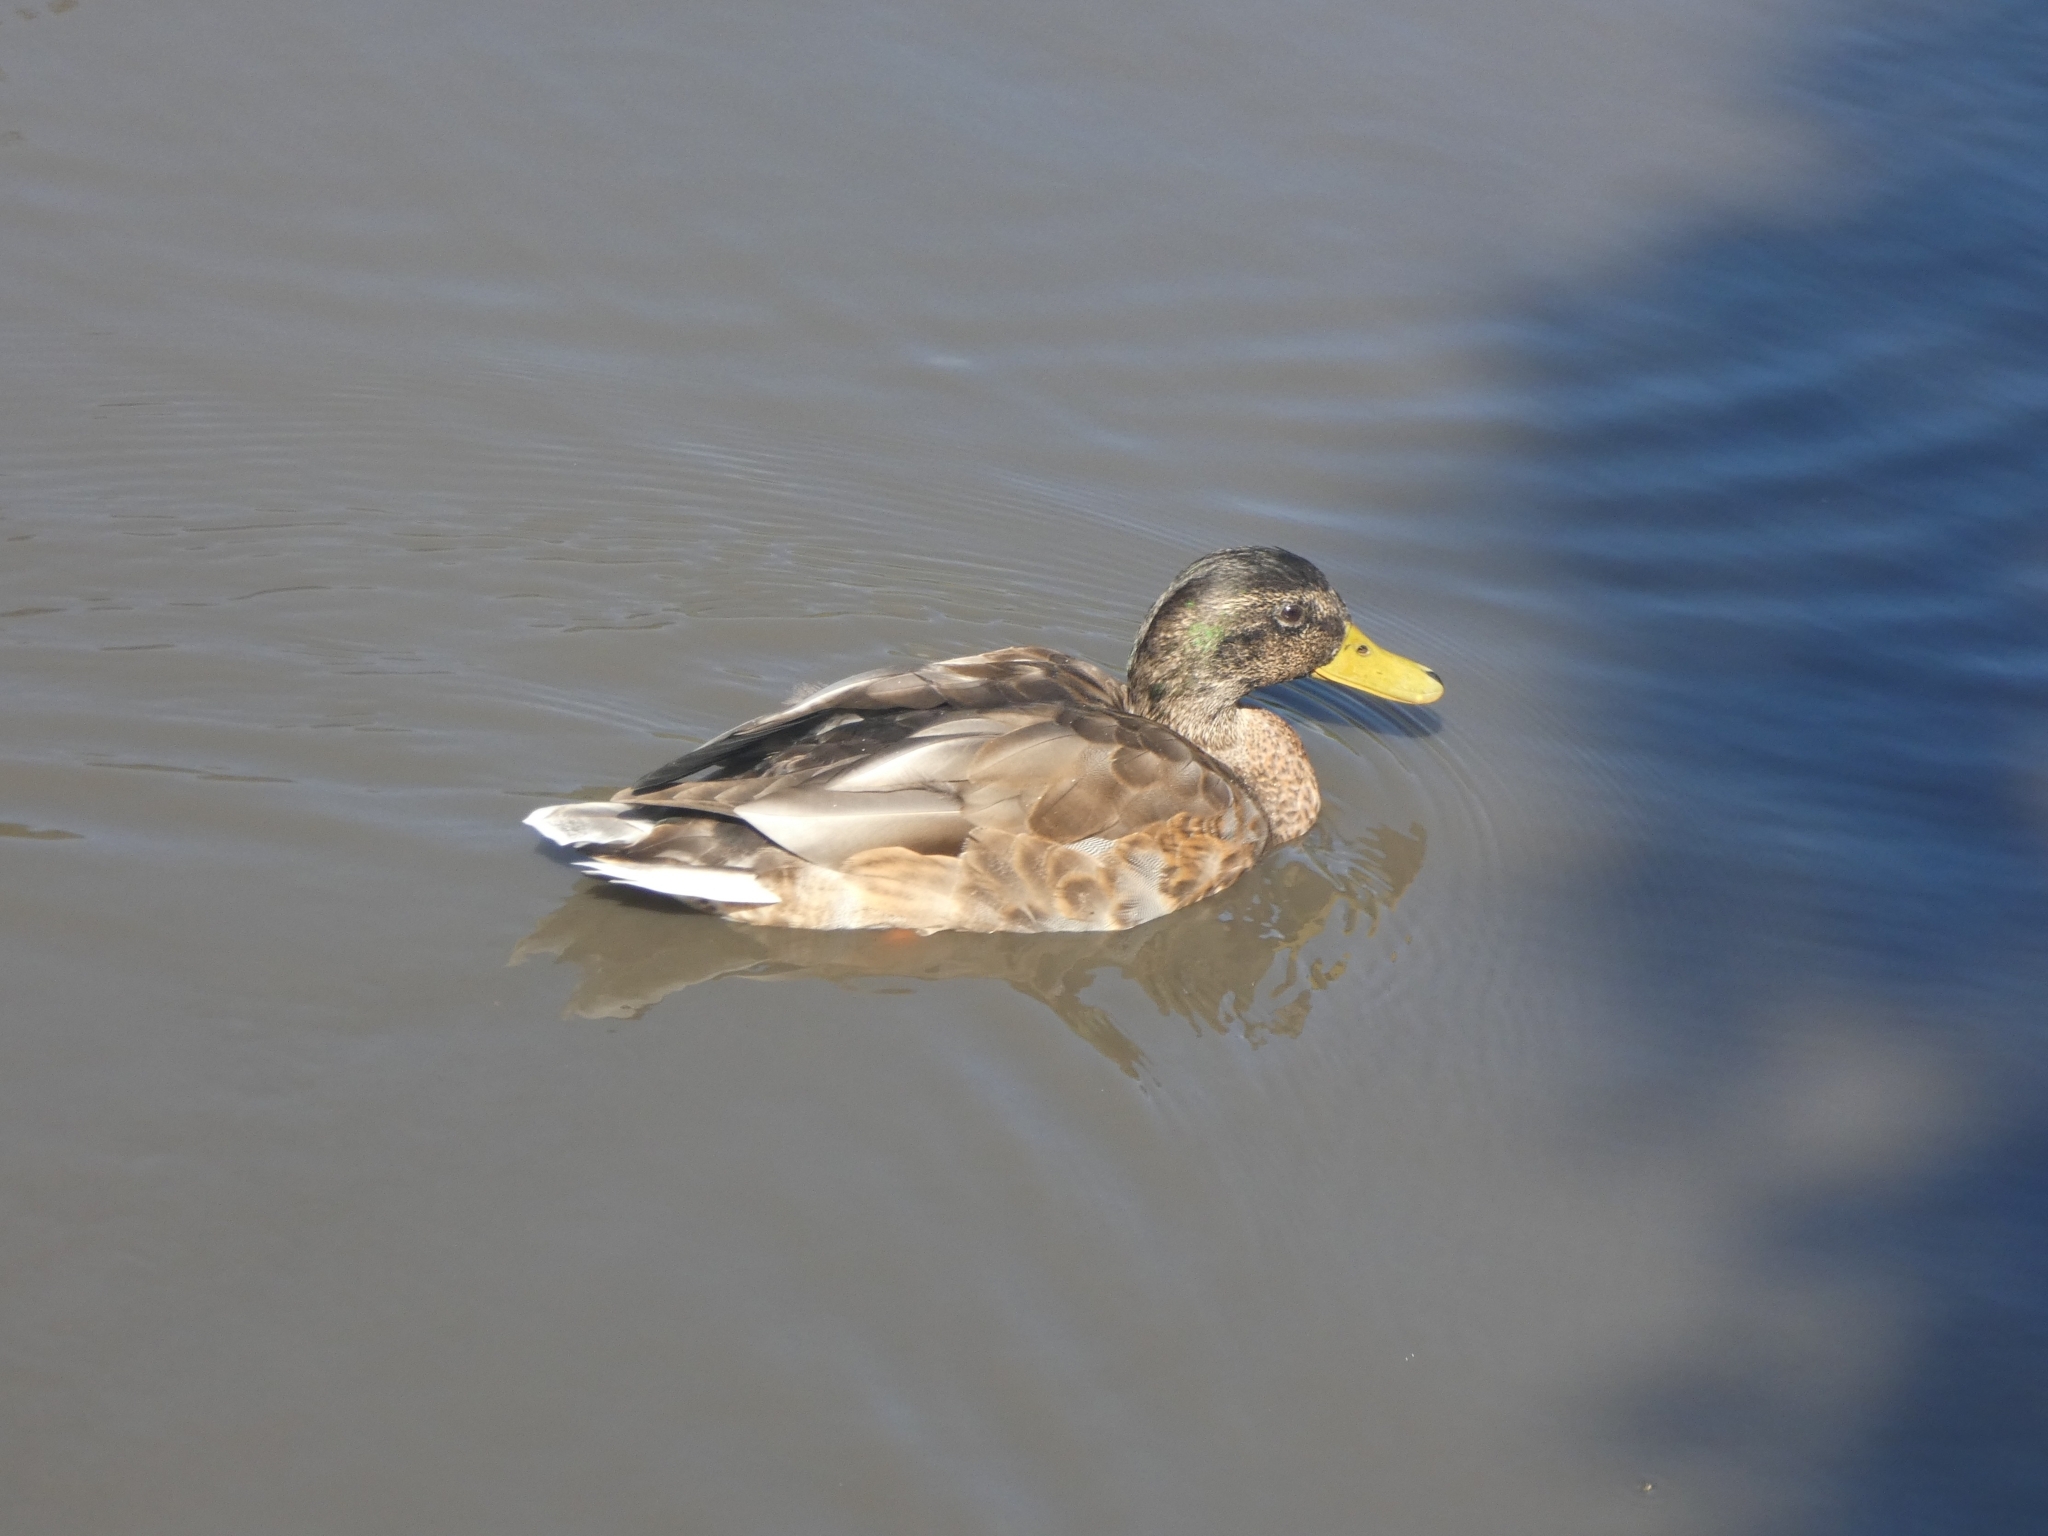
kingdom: Animalia
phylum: Chordata
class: Aves
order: Anseriformes
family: Anatidae
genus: Anas
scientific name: Anas platyrhynchos
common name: Mallard
